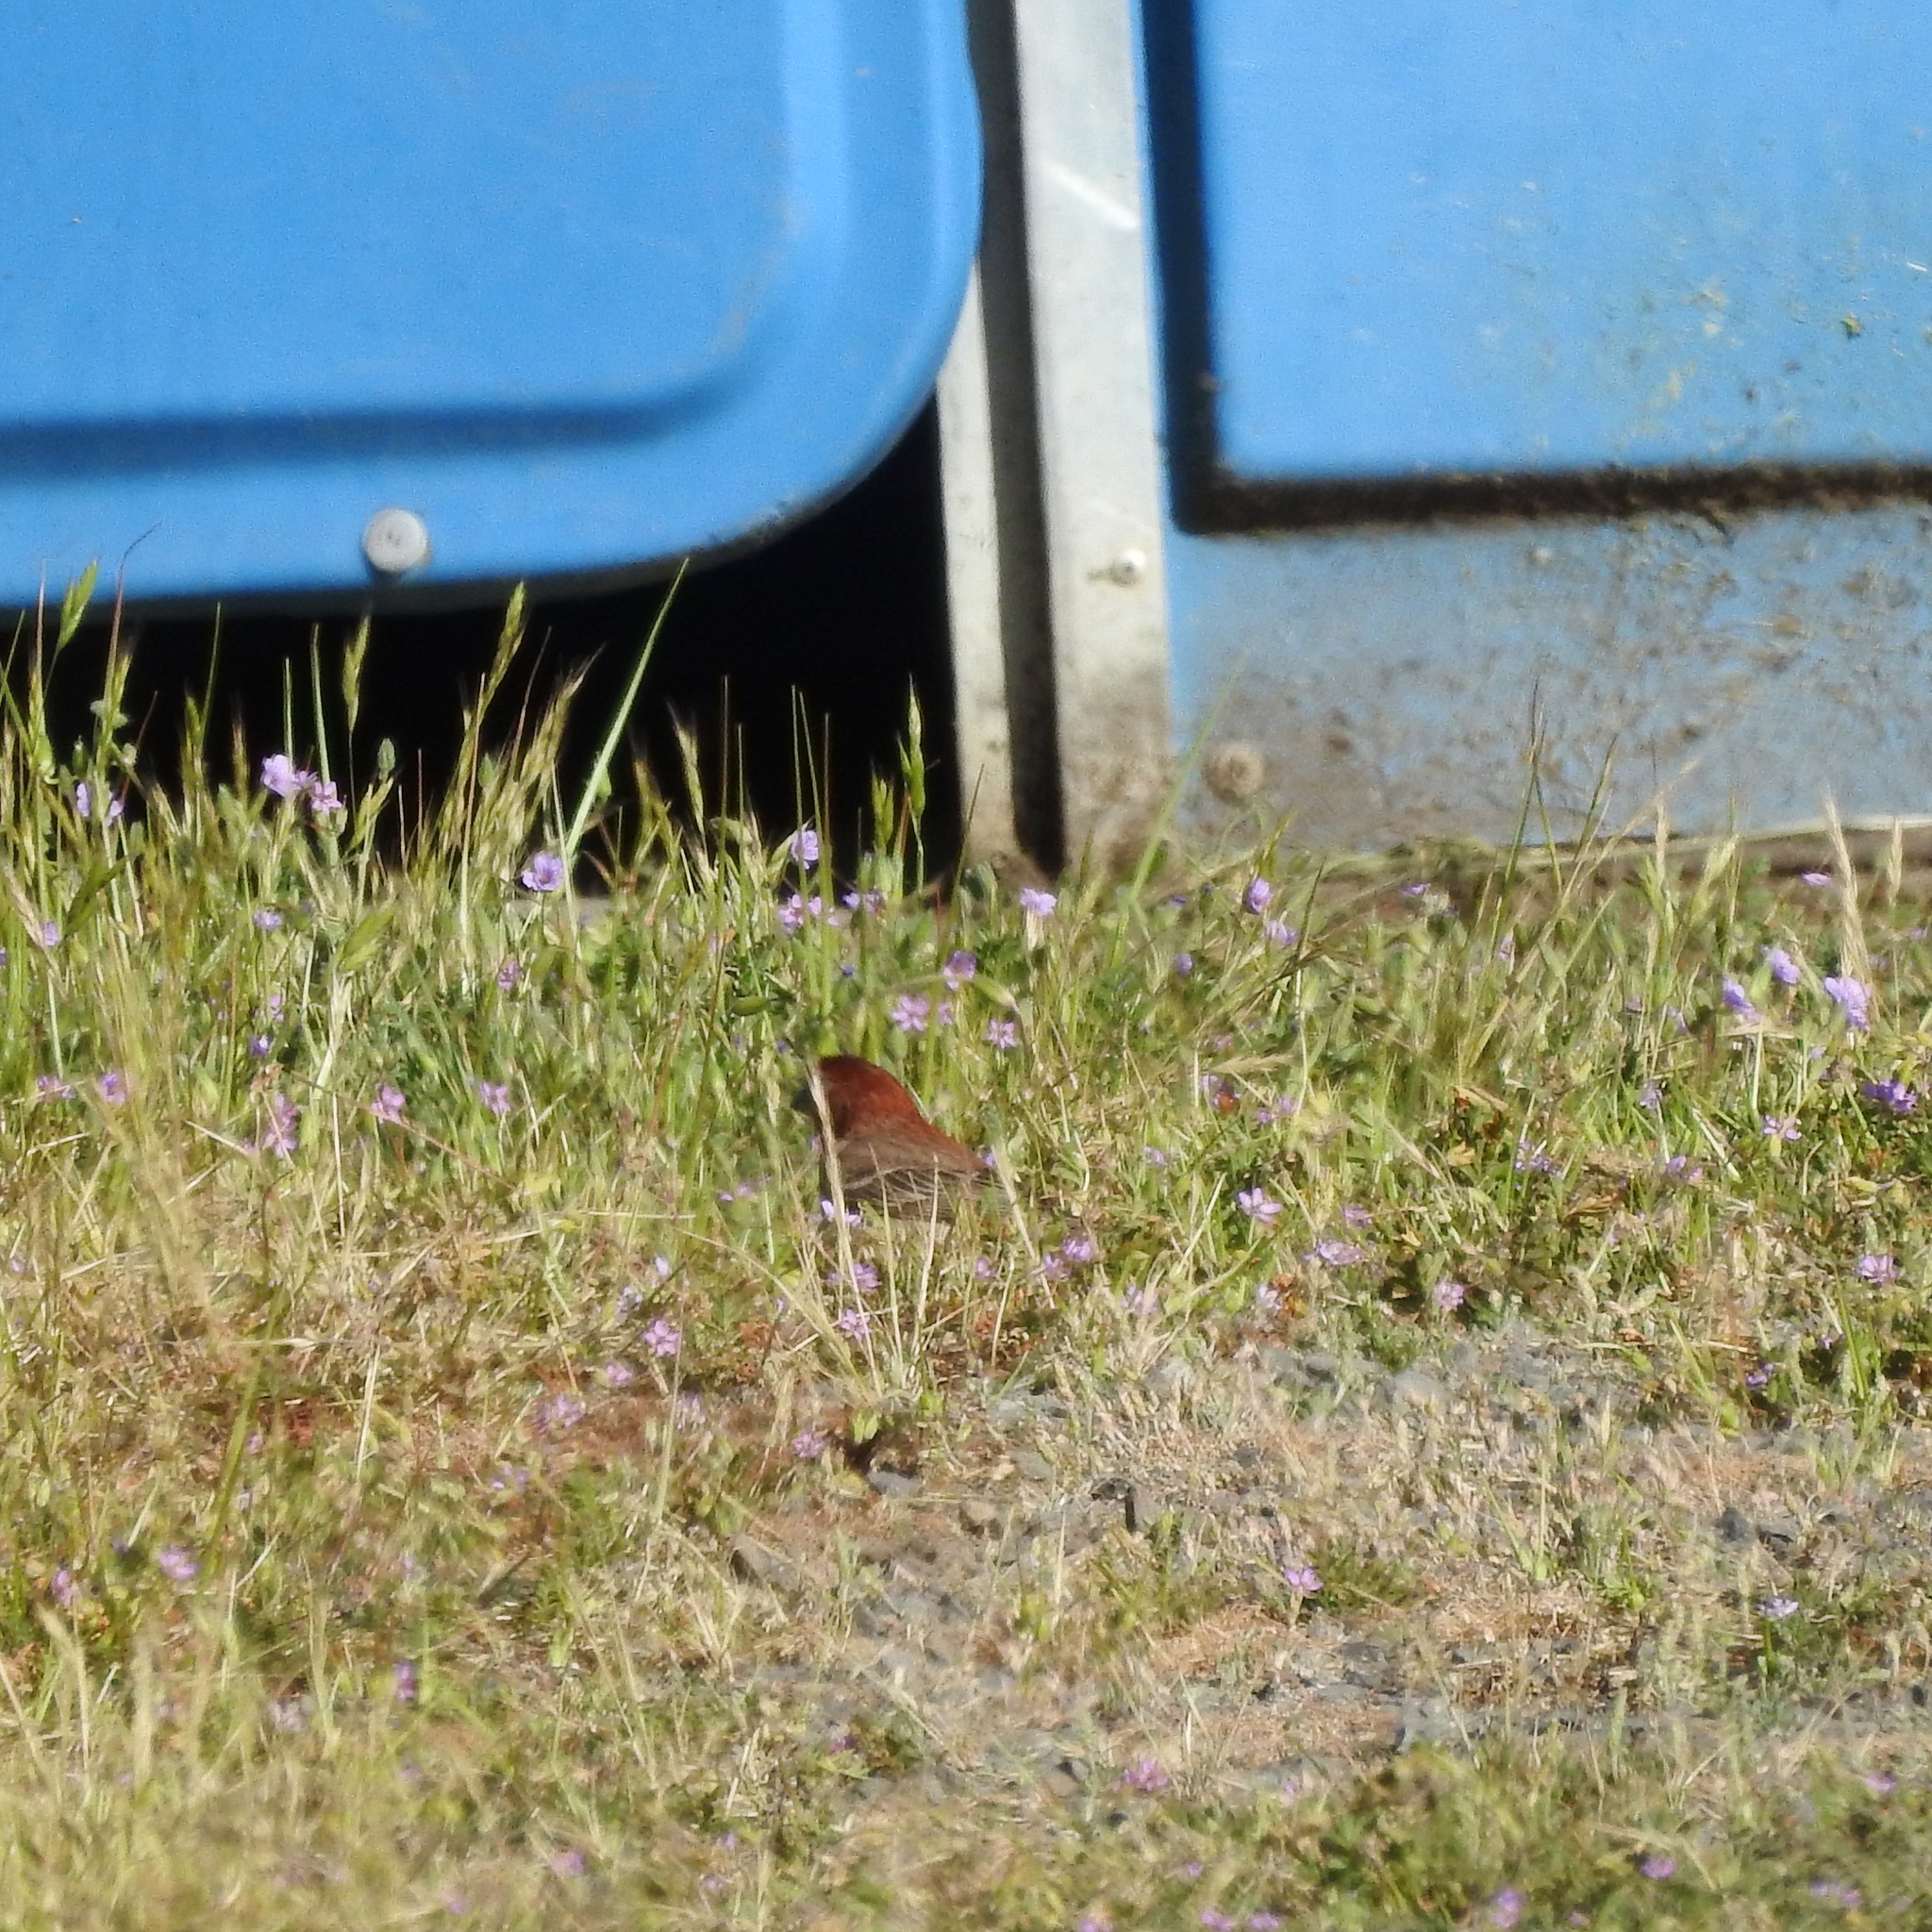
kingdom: Animalia
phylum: Chordata
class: Aves
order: Passeriformes
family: Fringillidae
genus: Haemorhous
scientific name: Haemorhous mexicanus
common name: House finch
